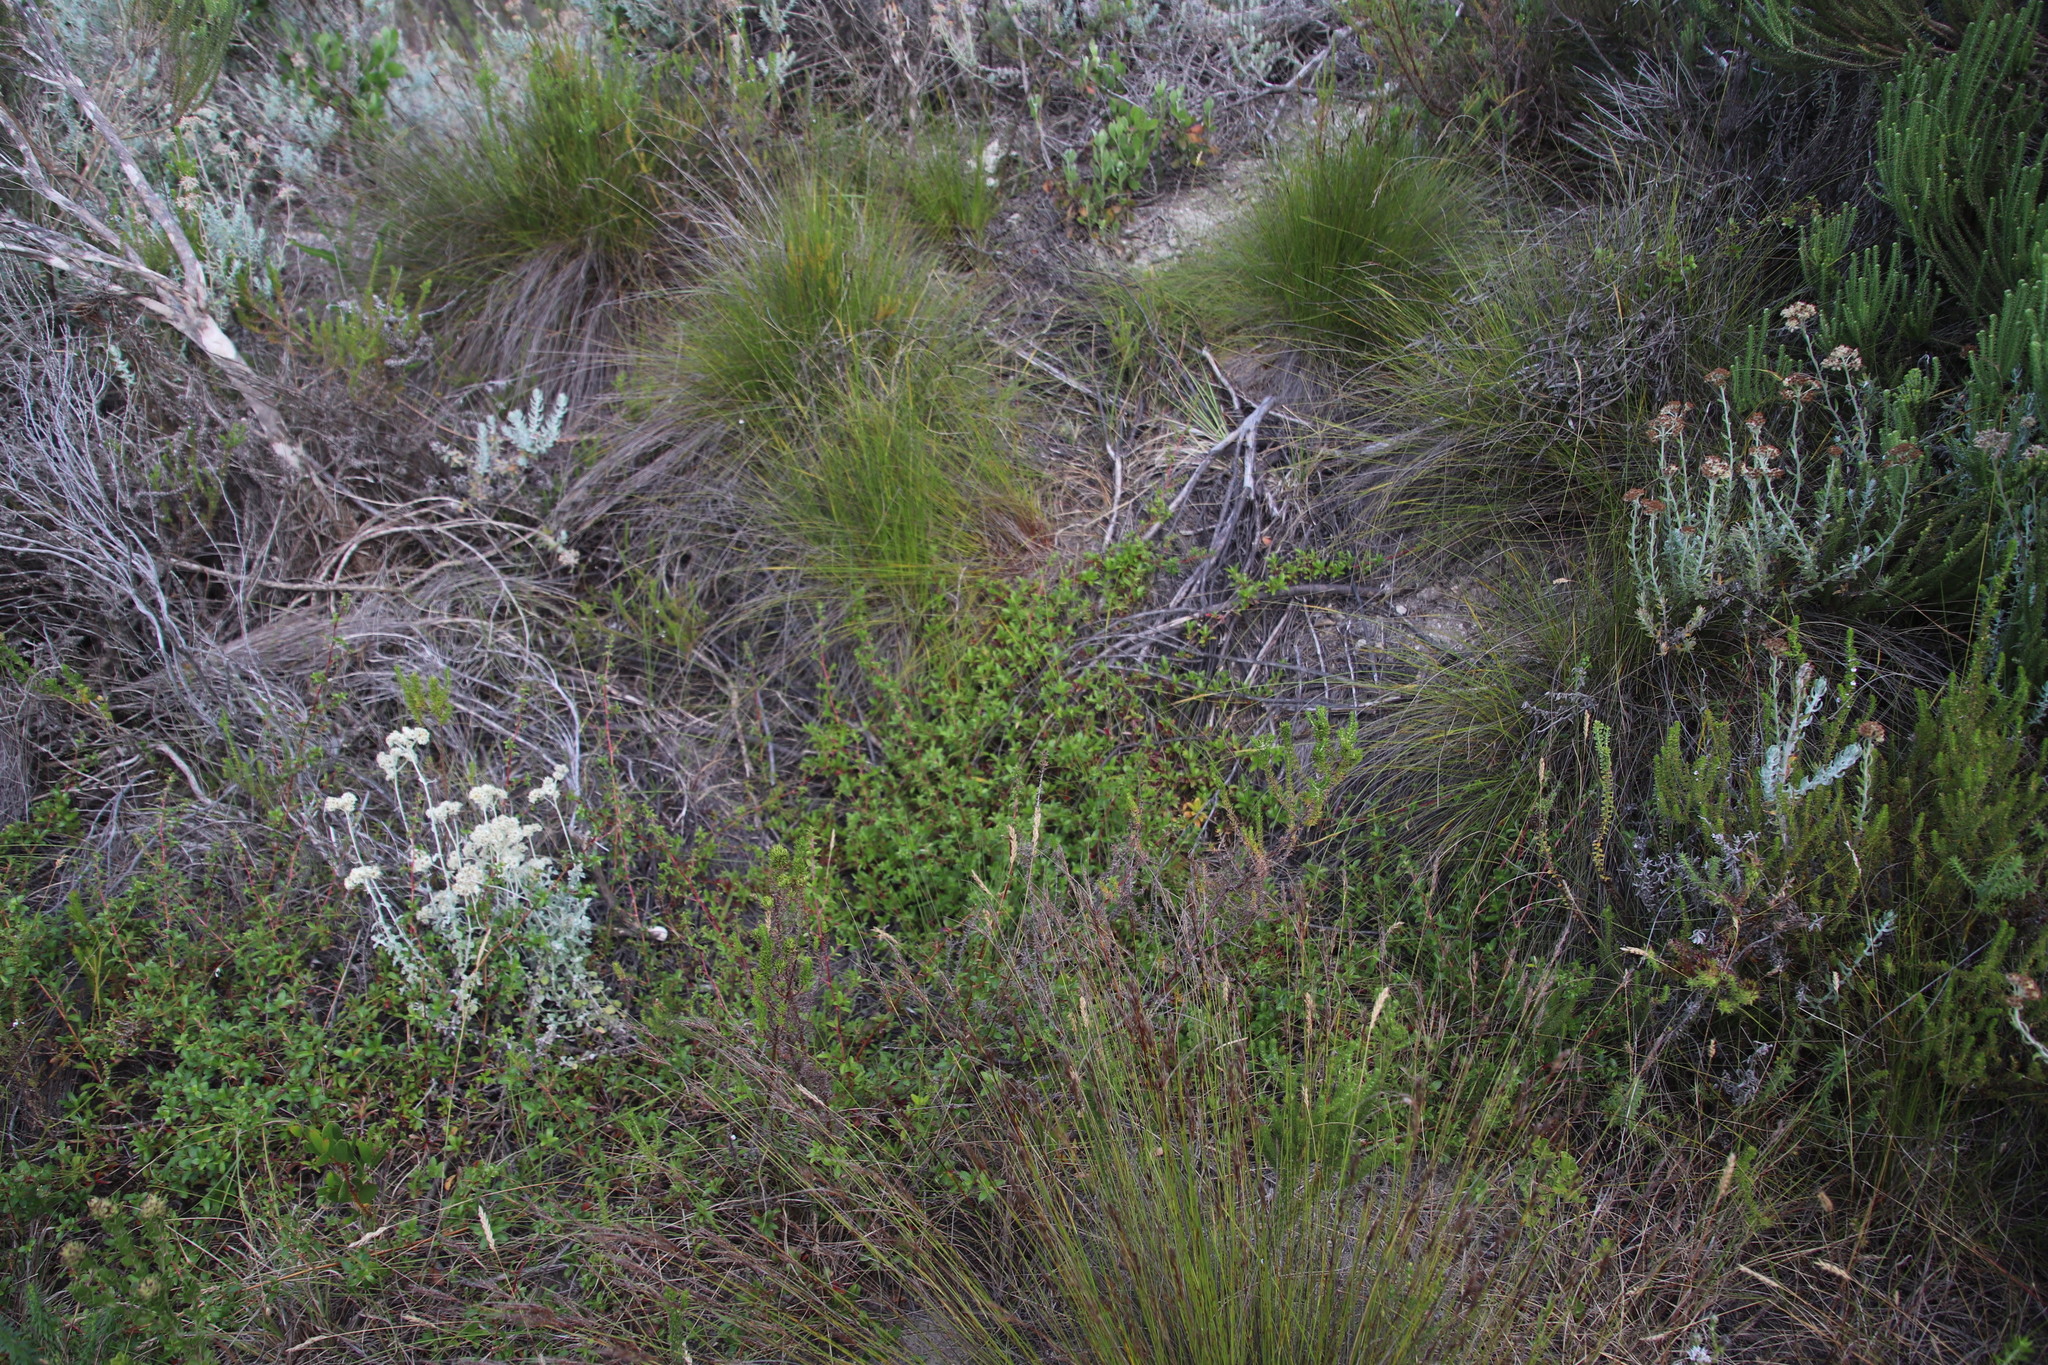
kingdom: Plantae
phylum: Tracheophyta
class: Magnoliopsida
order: Rosales
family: Rosaceae
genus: Cliffortia
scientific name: Cliffortia ferruginea
